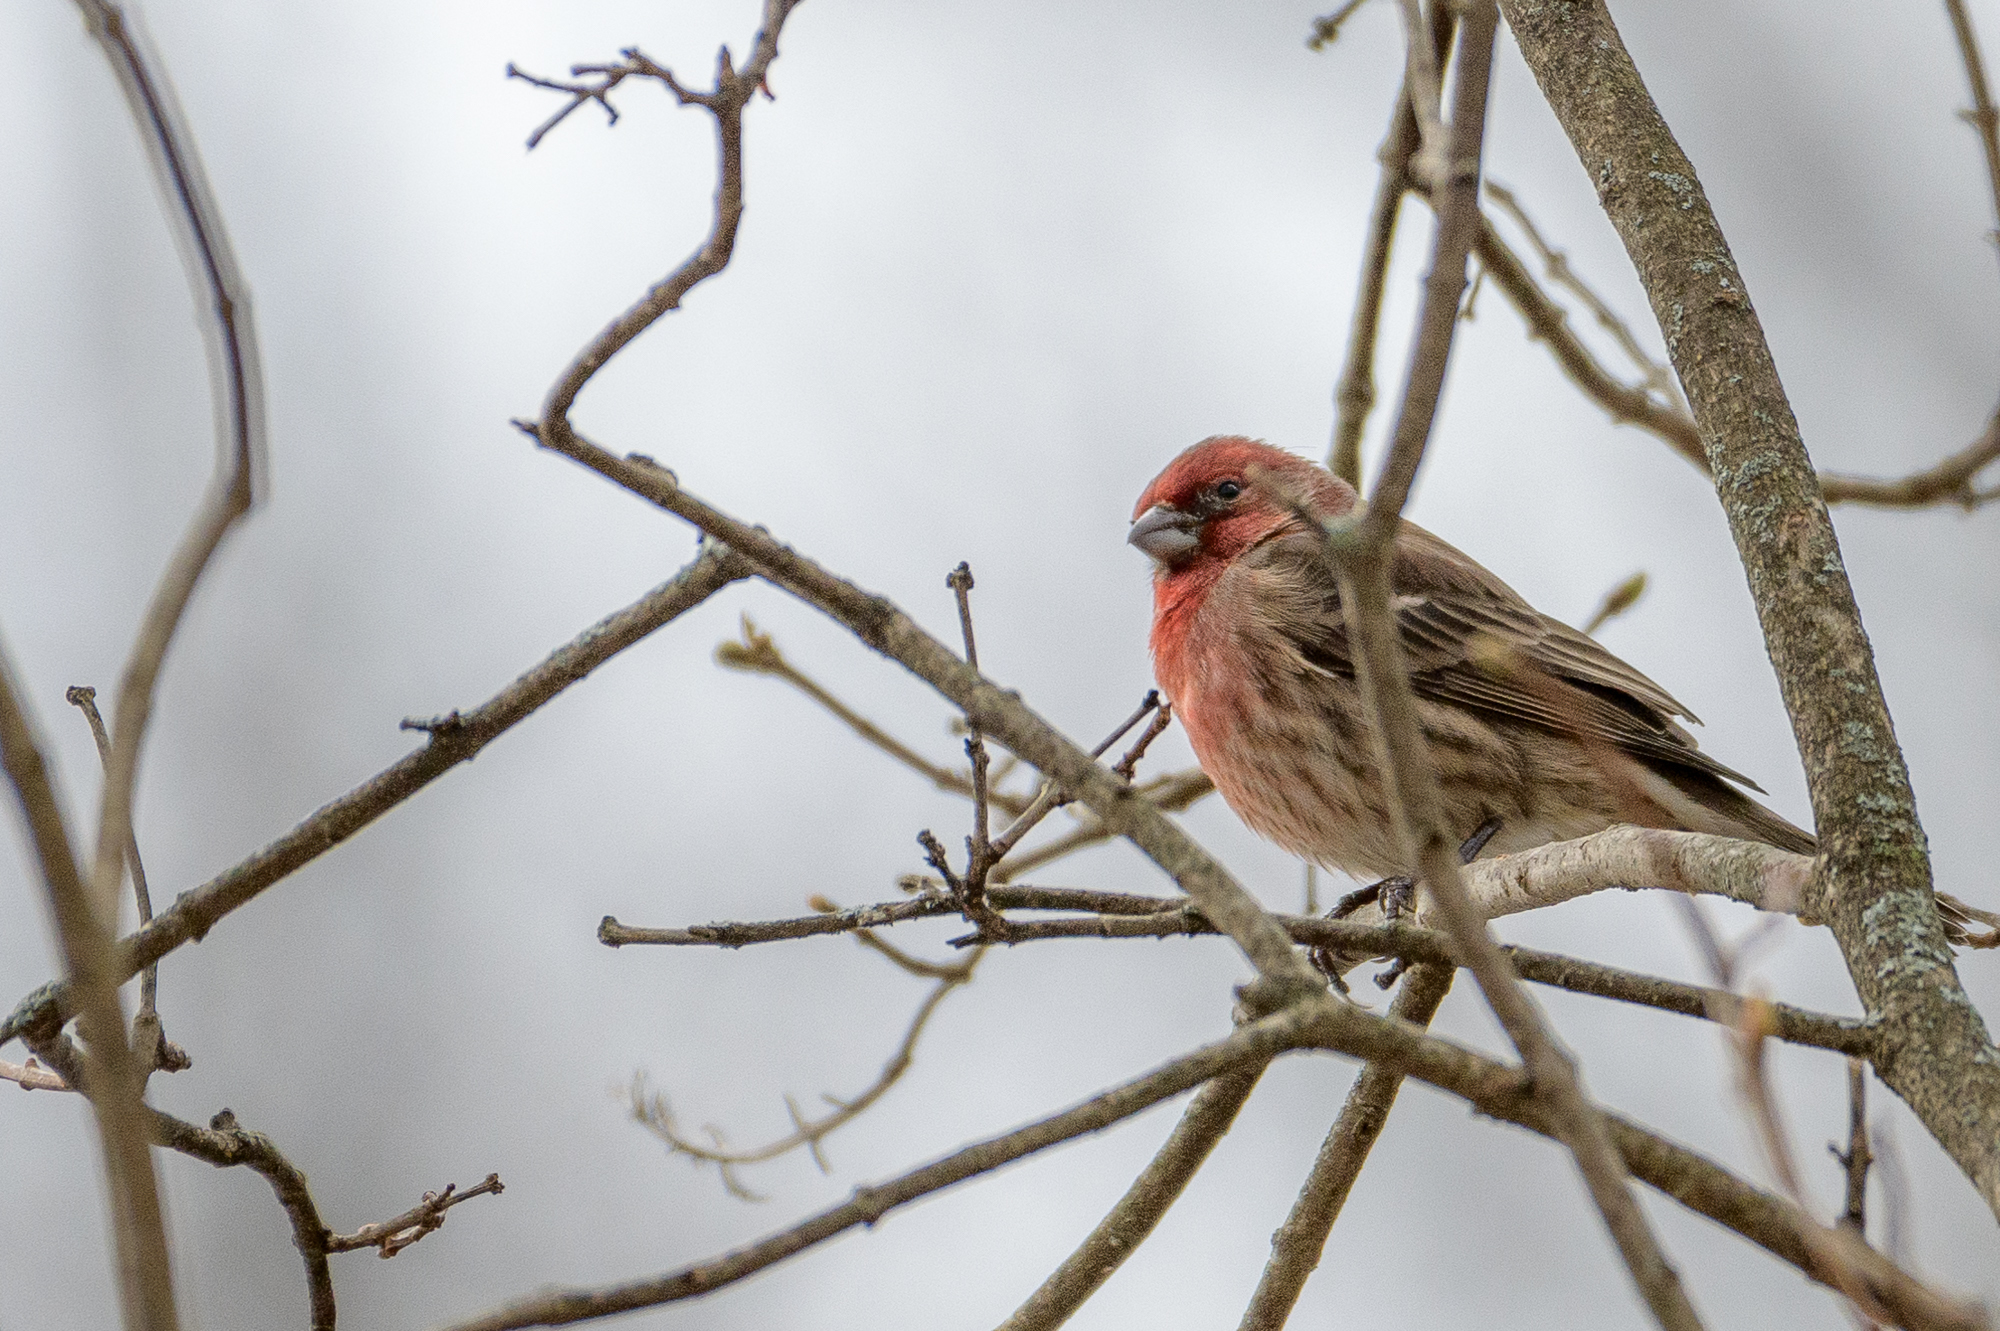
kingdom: Animalia
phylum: Chordata
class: Aves
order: Passeriformes
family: Fringillidae
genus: Haemorhous
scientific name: Haemorhous mexicanus
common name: House finch
